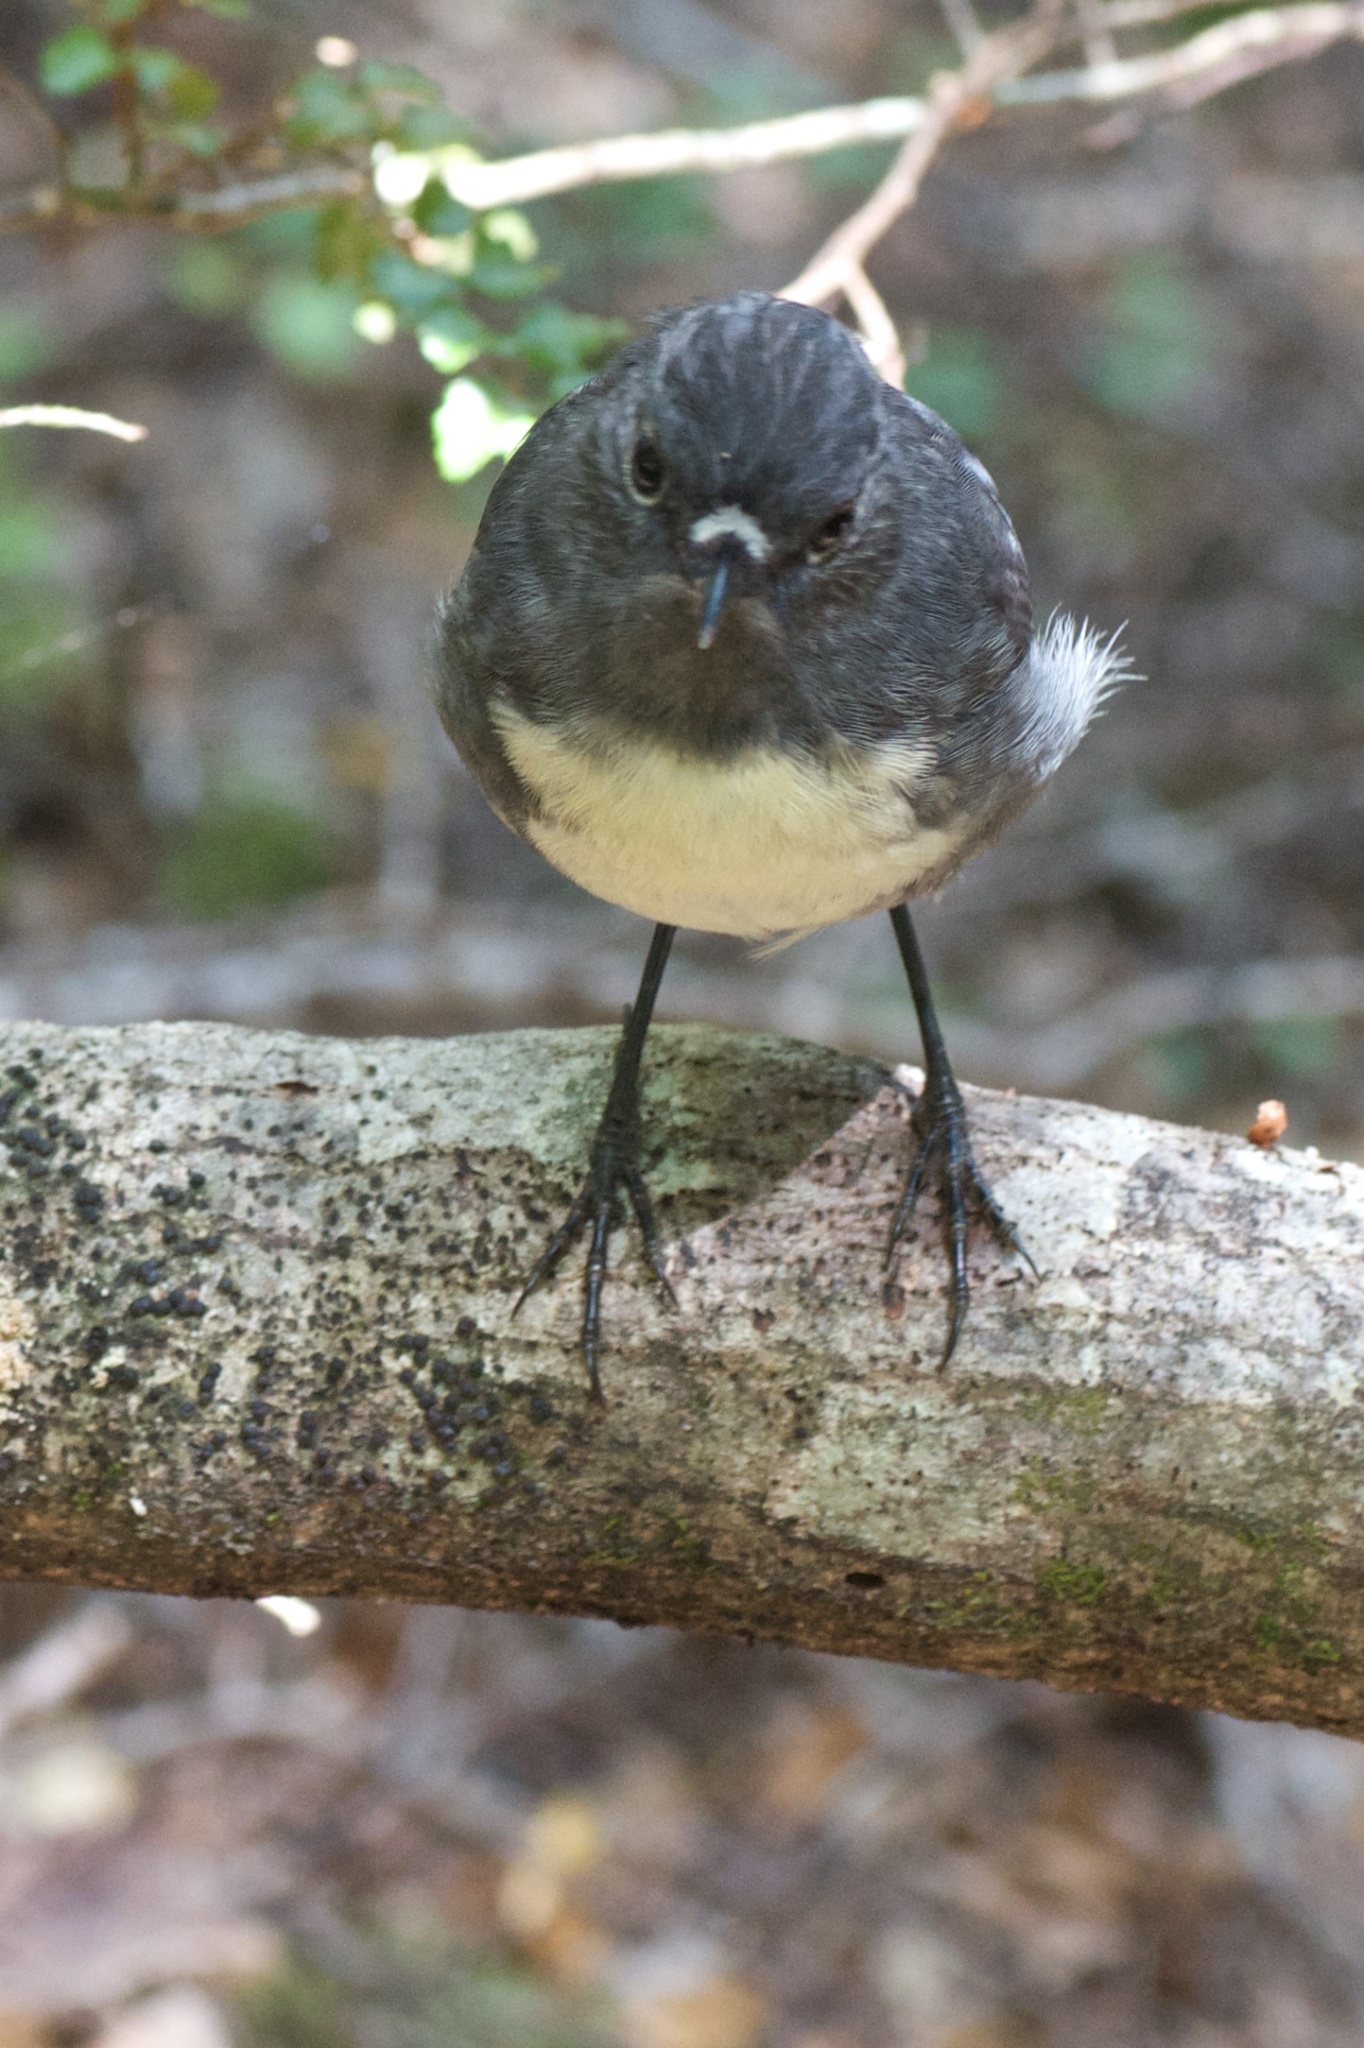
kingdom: Animalia
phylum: Chordata
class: Aves
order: Passeriformes
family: Petroicidae
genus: Petroica
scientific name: Petroica australis
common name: New zealand robin
